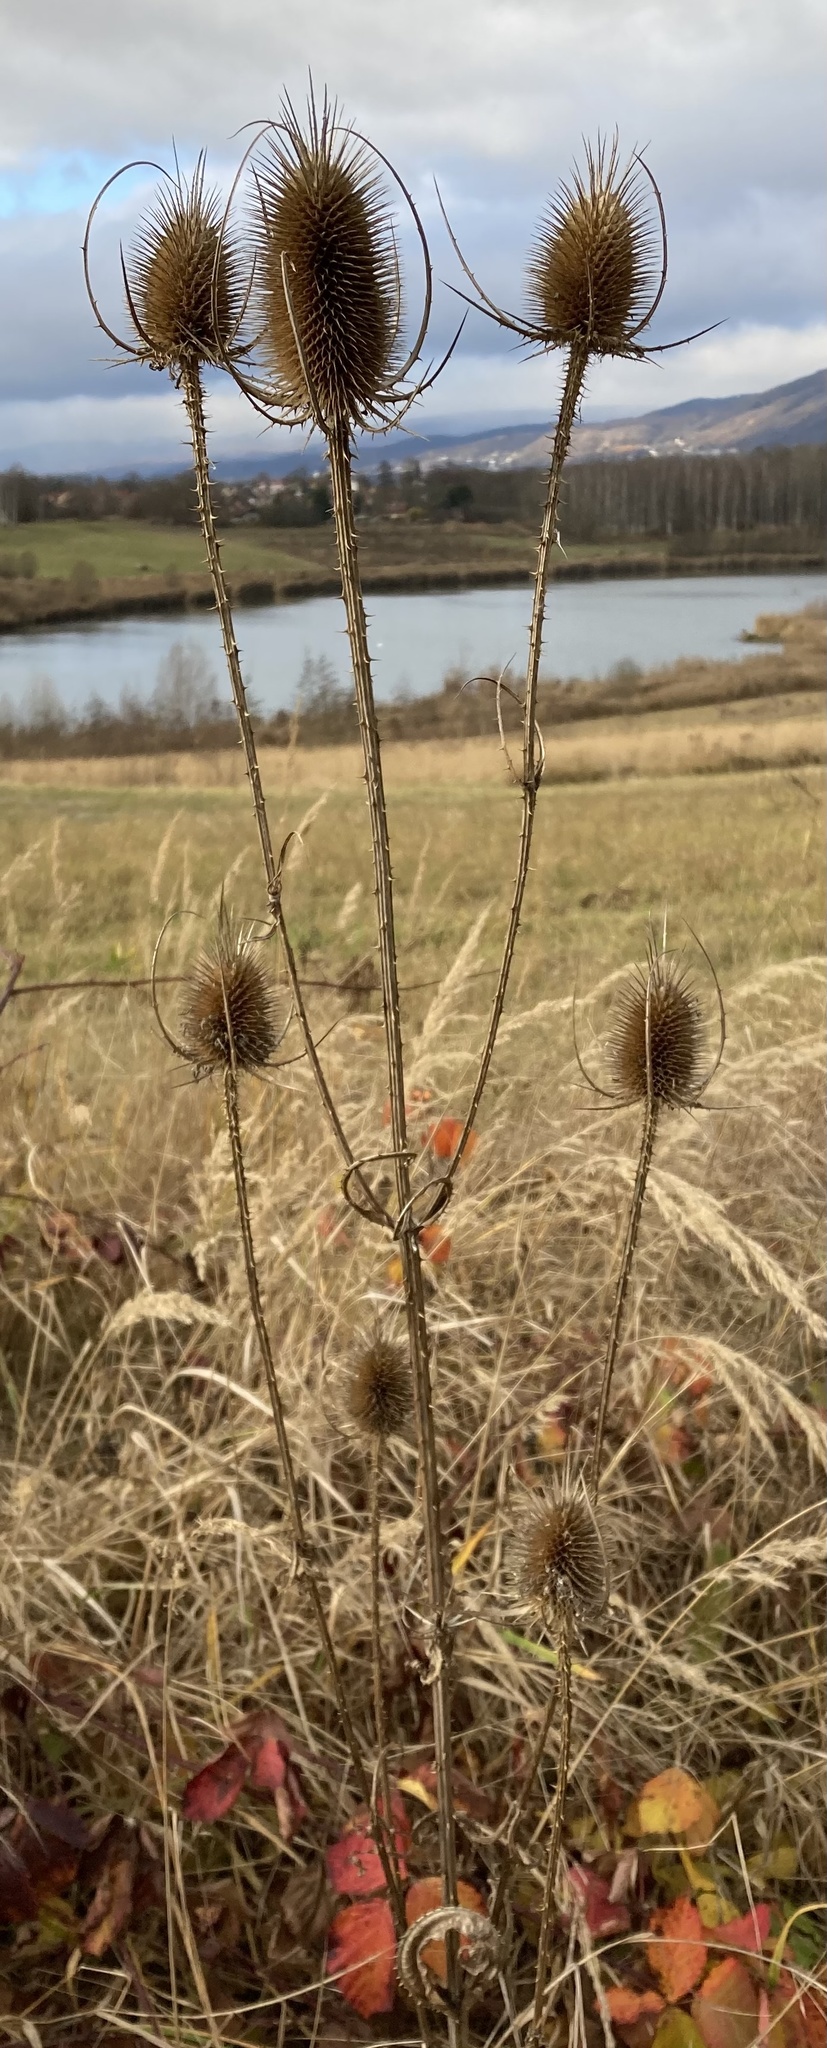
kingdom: Plantae
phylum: Tracheophyta
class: Magnoliopsida
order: Dipsacales
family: Caprifoliaceae
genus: Dipsacus
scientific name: Dipsacus fullonum
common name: Teasel
